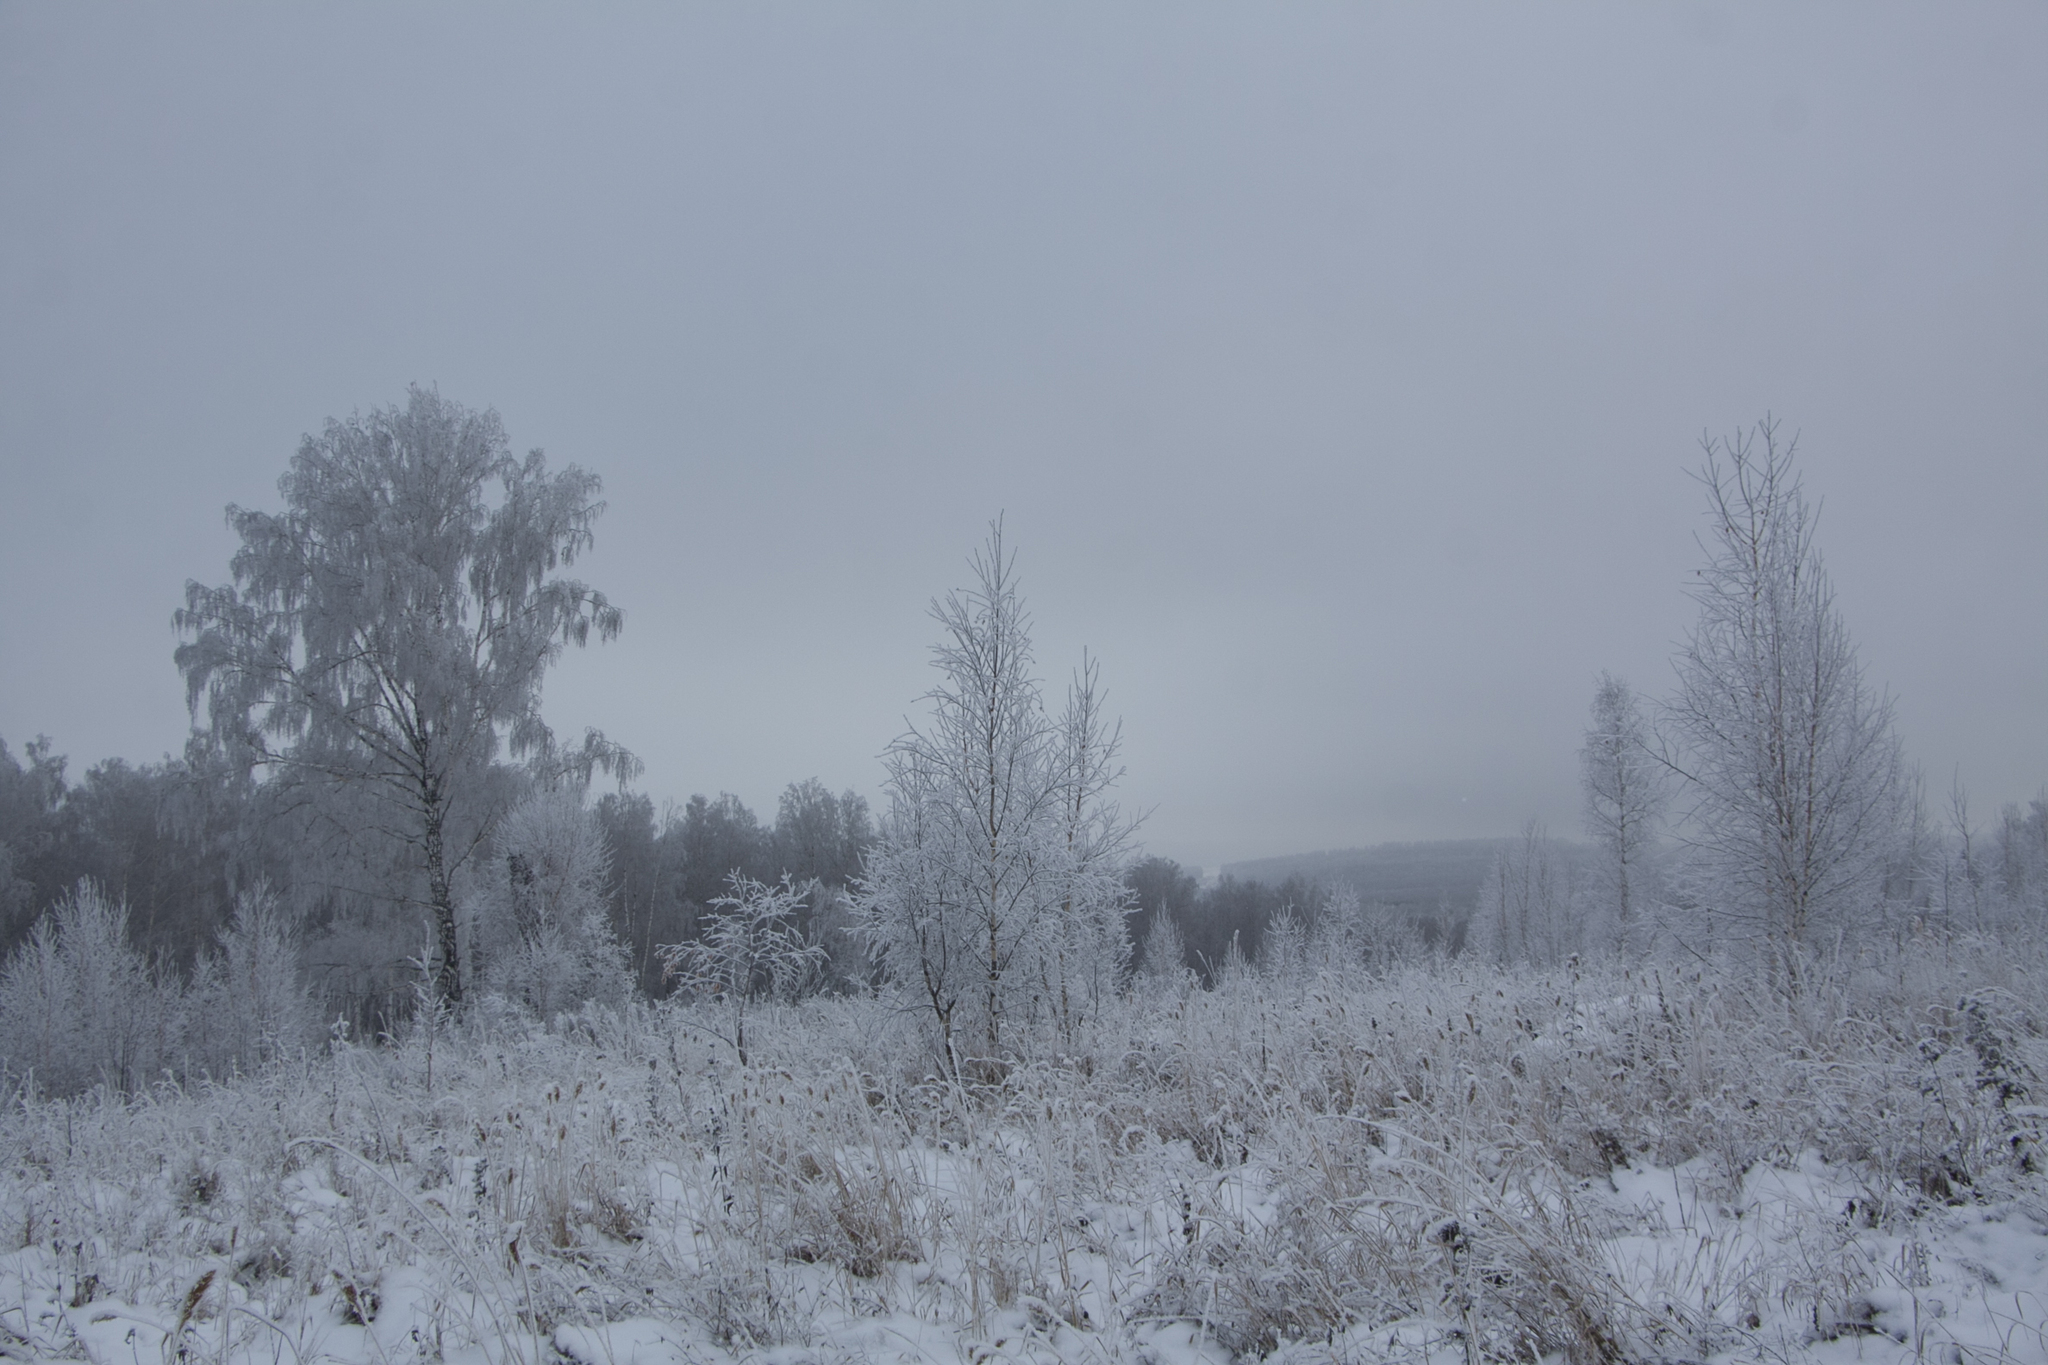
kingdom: Plantae
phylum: Tracheophyta
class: Magnoliopsida
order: Fagales
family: Betulaceae
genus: Betula
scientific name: Betula pendula
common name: Silver birch
